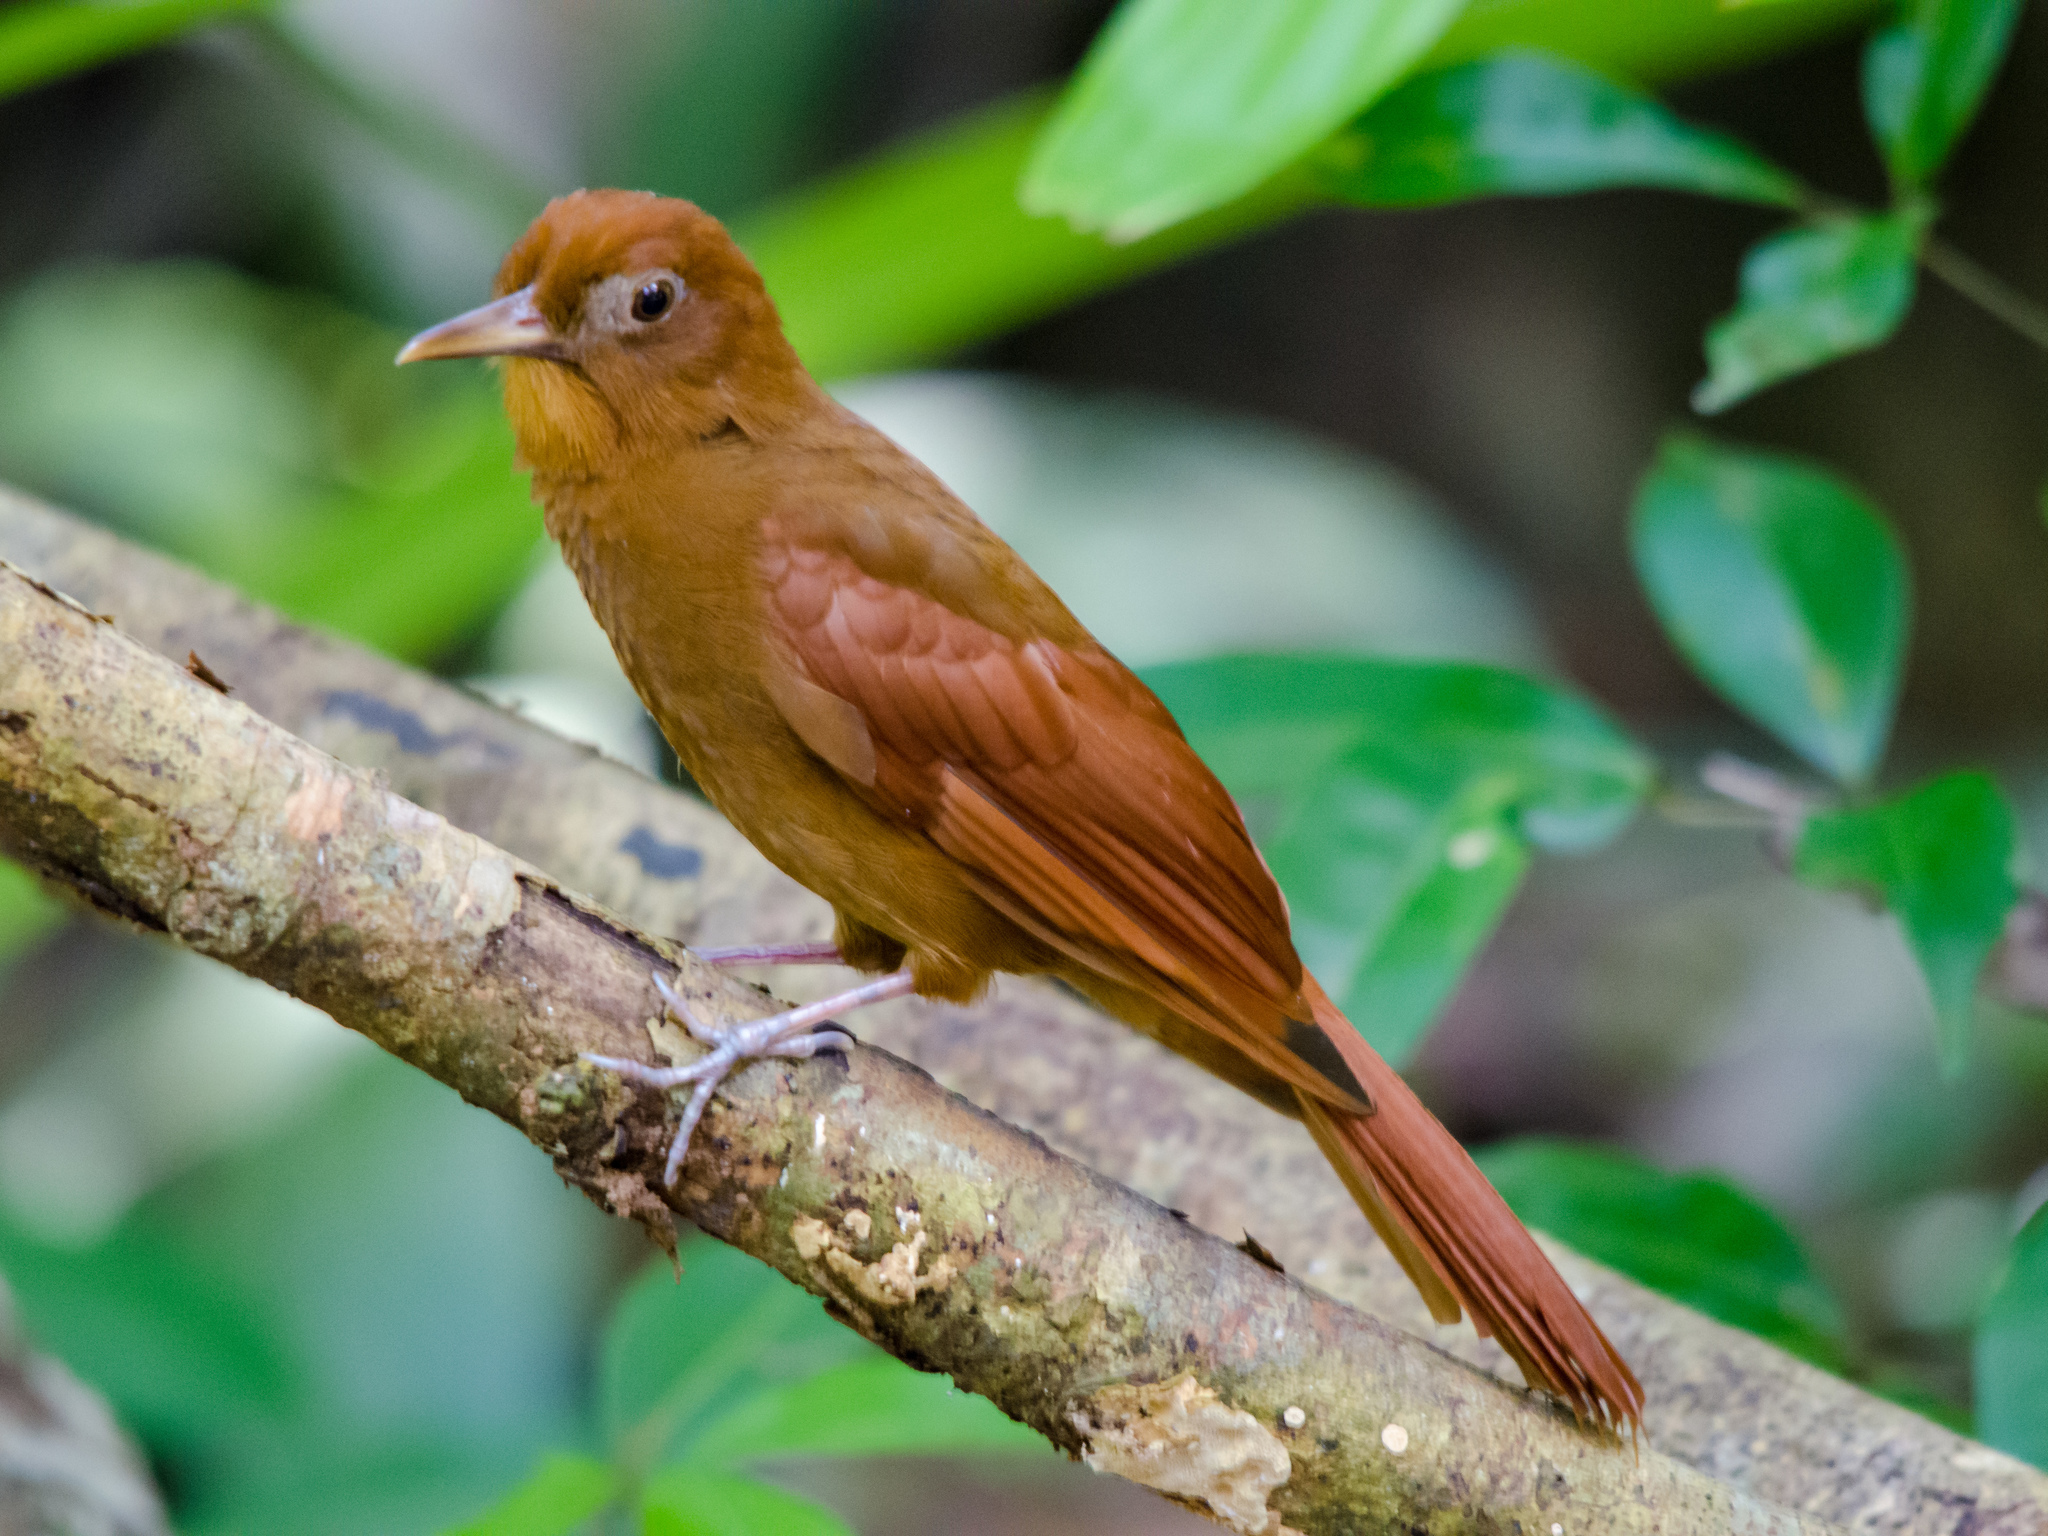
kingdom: Animalia
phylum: Chordata
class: Aves
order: Passeriformes
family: Furnariidae
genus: Dendrocincla
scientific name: Dendrocincla homochroa
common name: Ruddy woodcreeper
